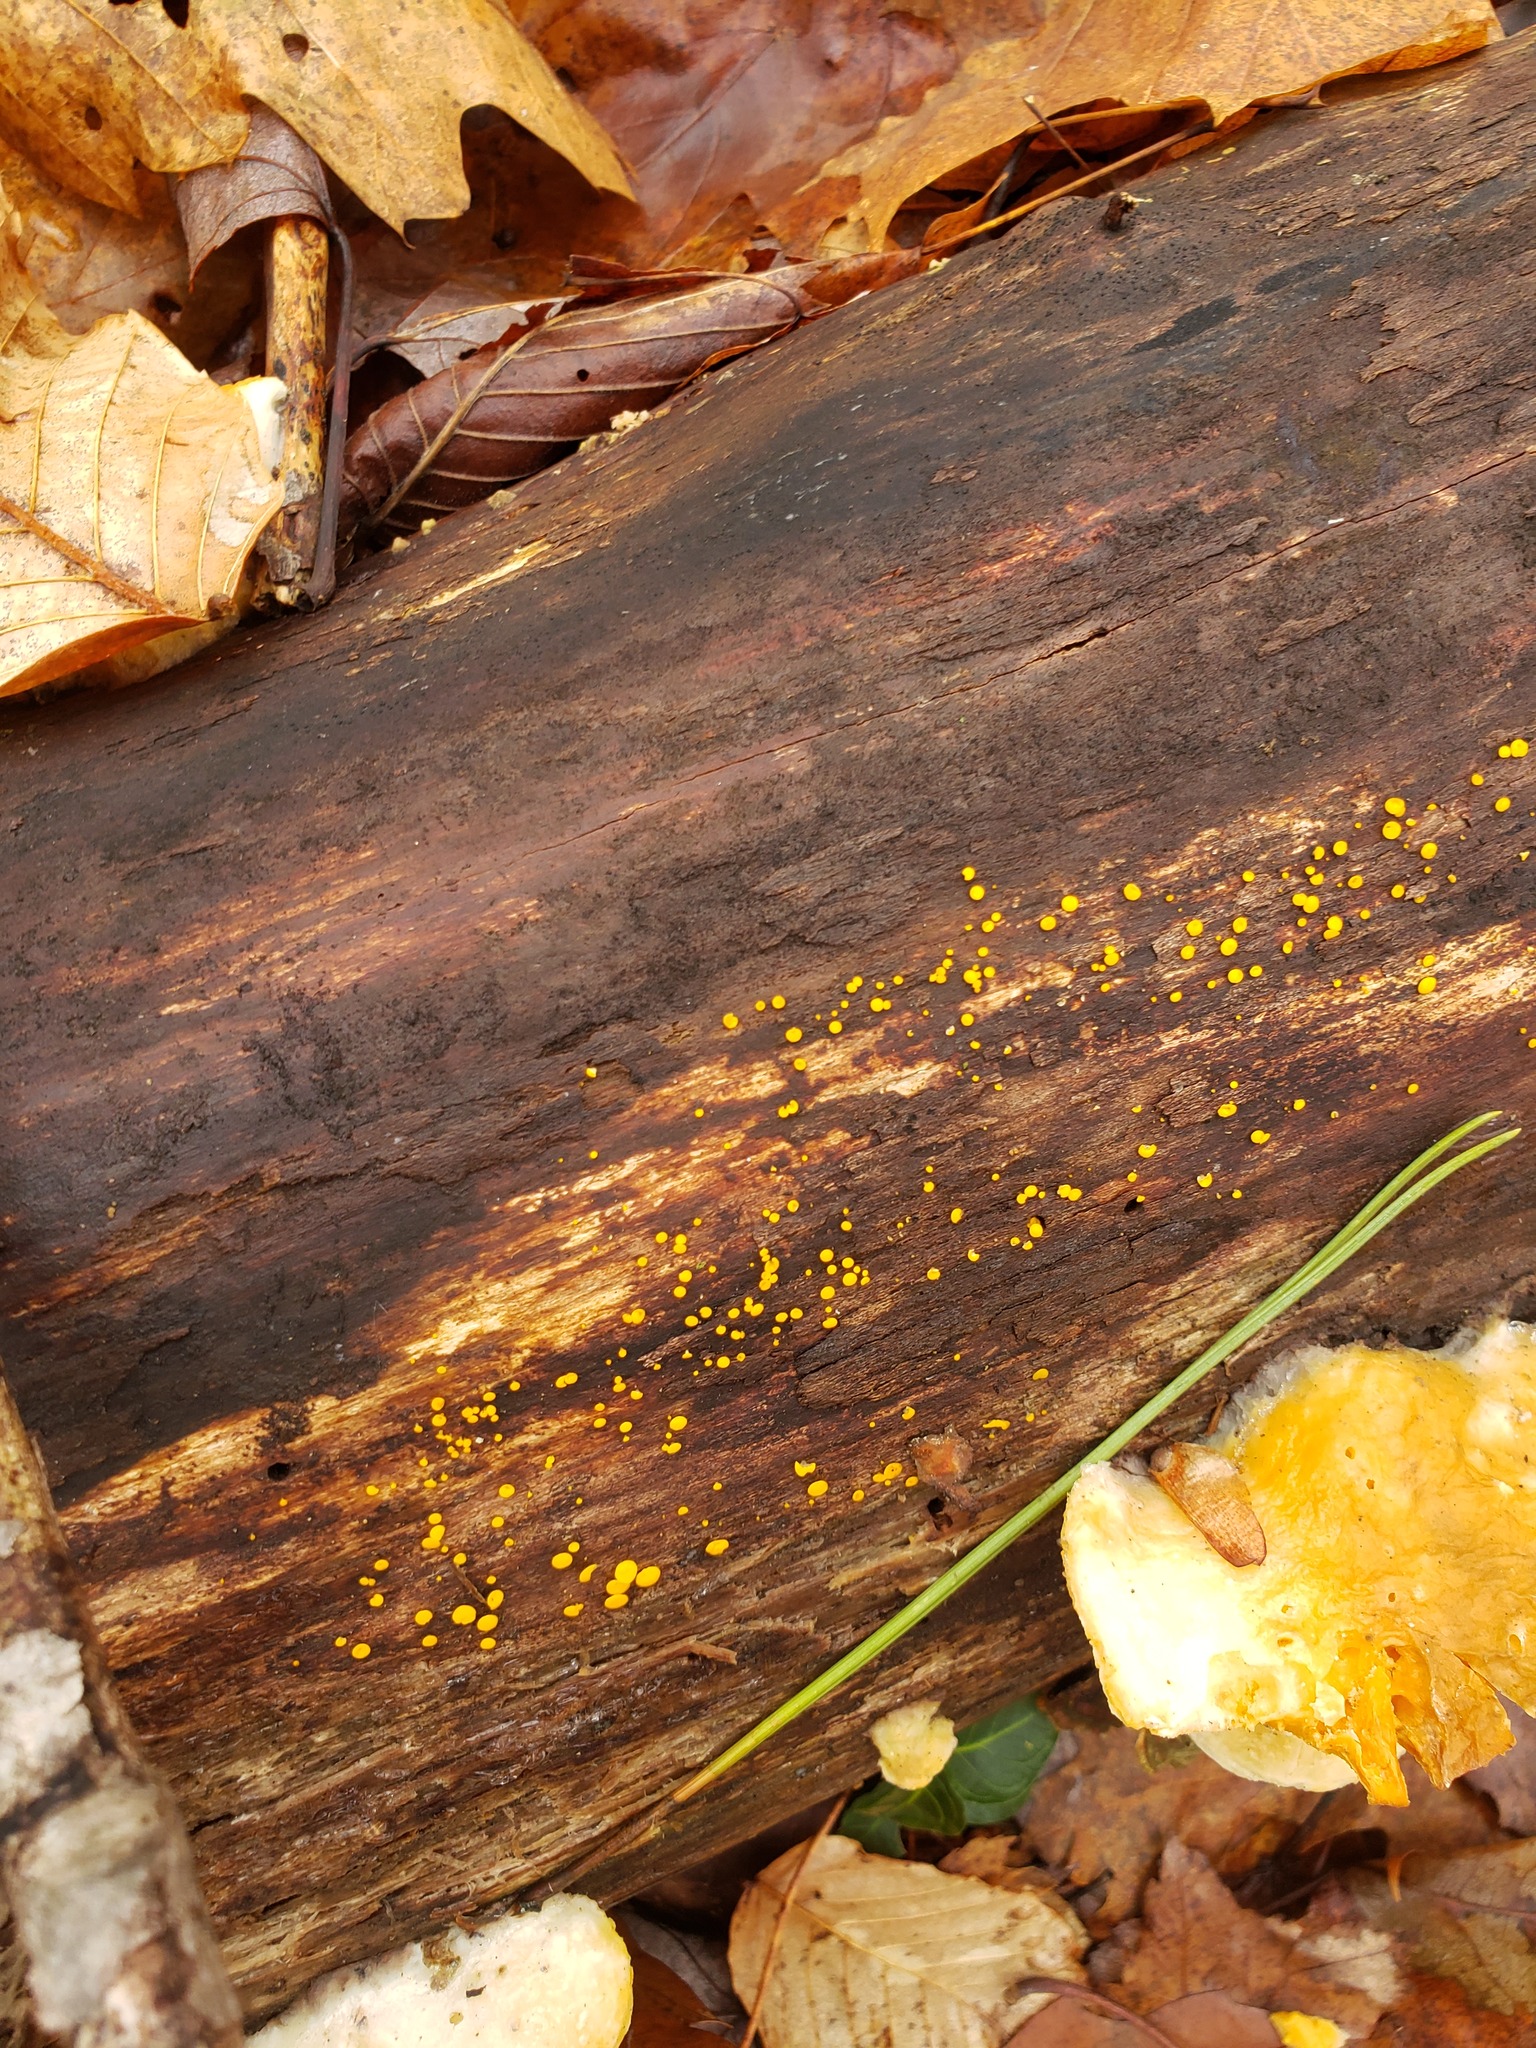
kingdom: Fungi
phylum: Ascomycota
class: Leotiomycetes
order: Helotiales
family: Pezizellaceae
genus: Calycina
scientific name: Calycina citrina
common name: Yellow fairy cups
